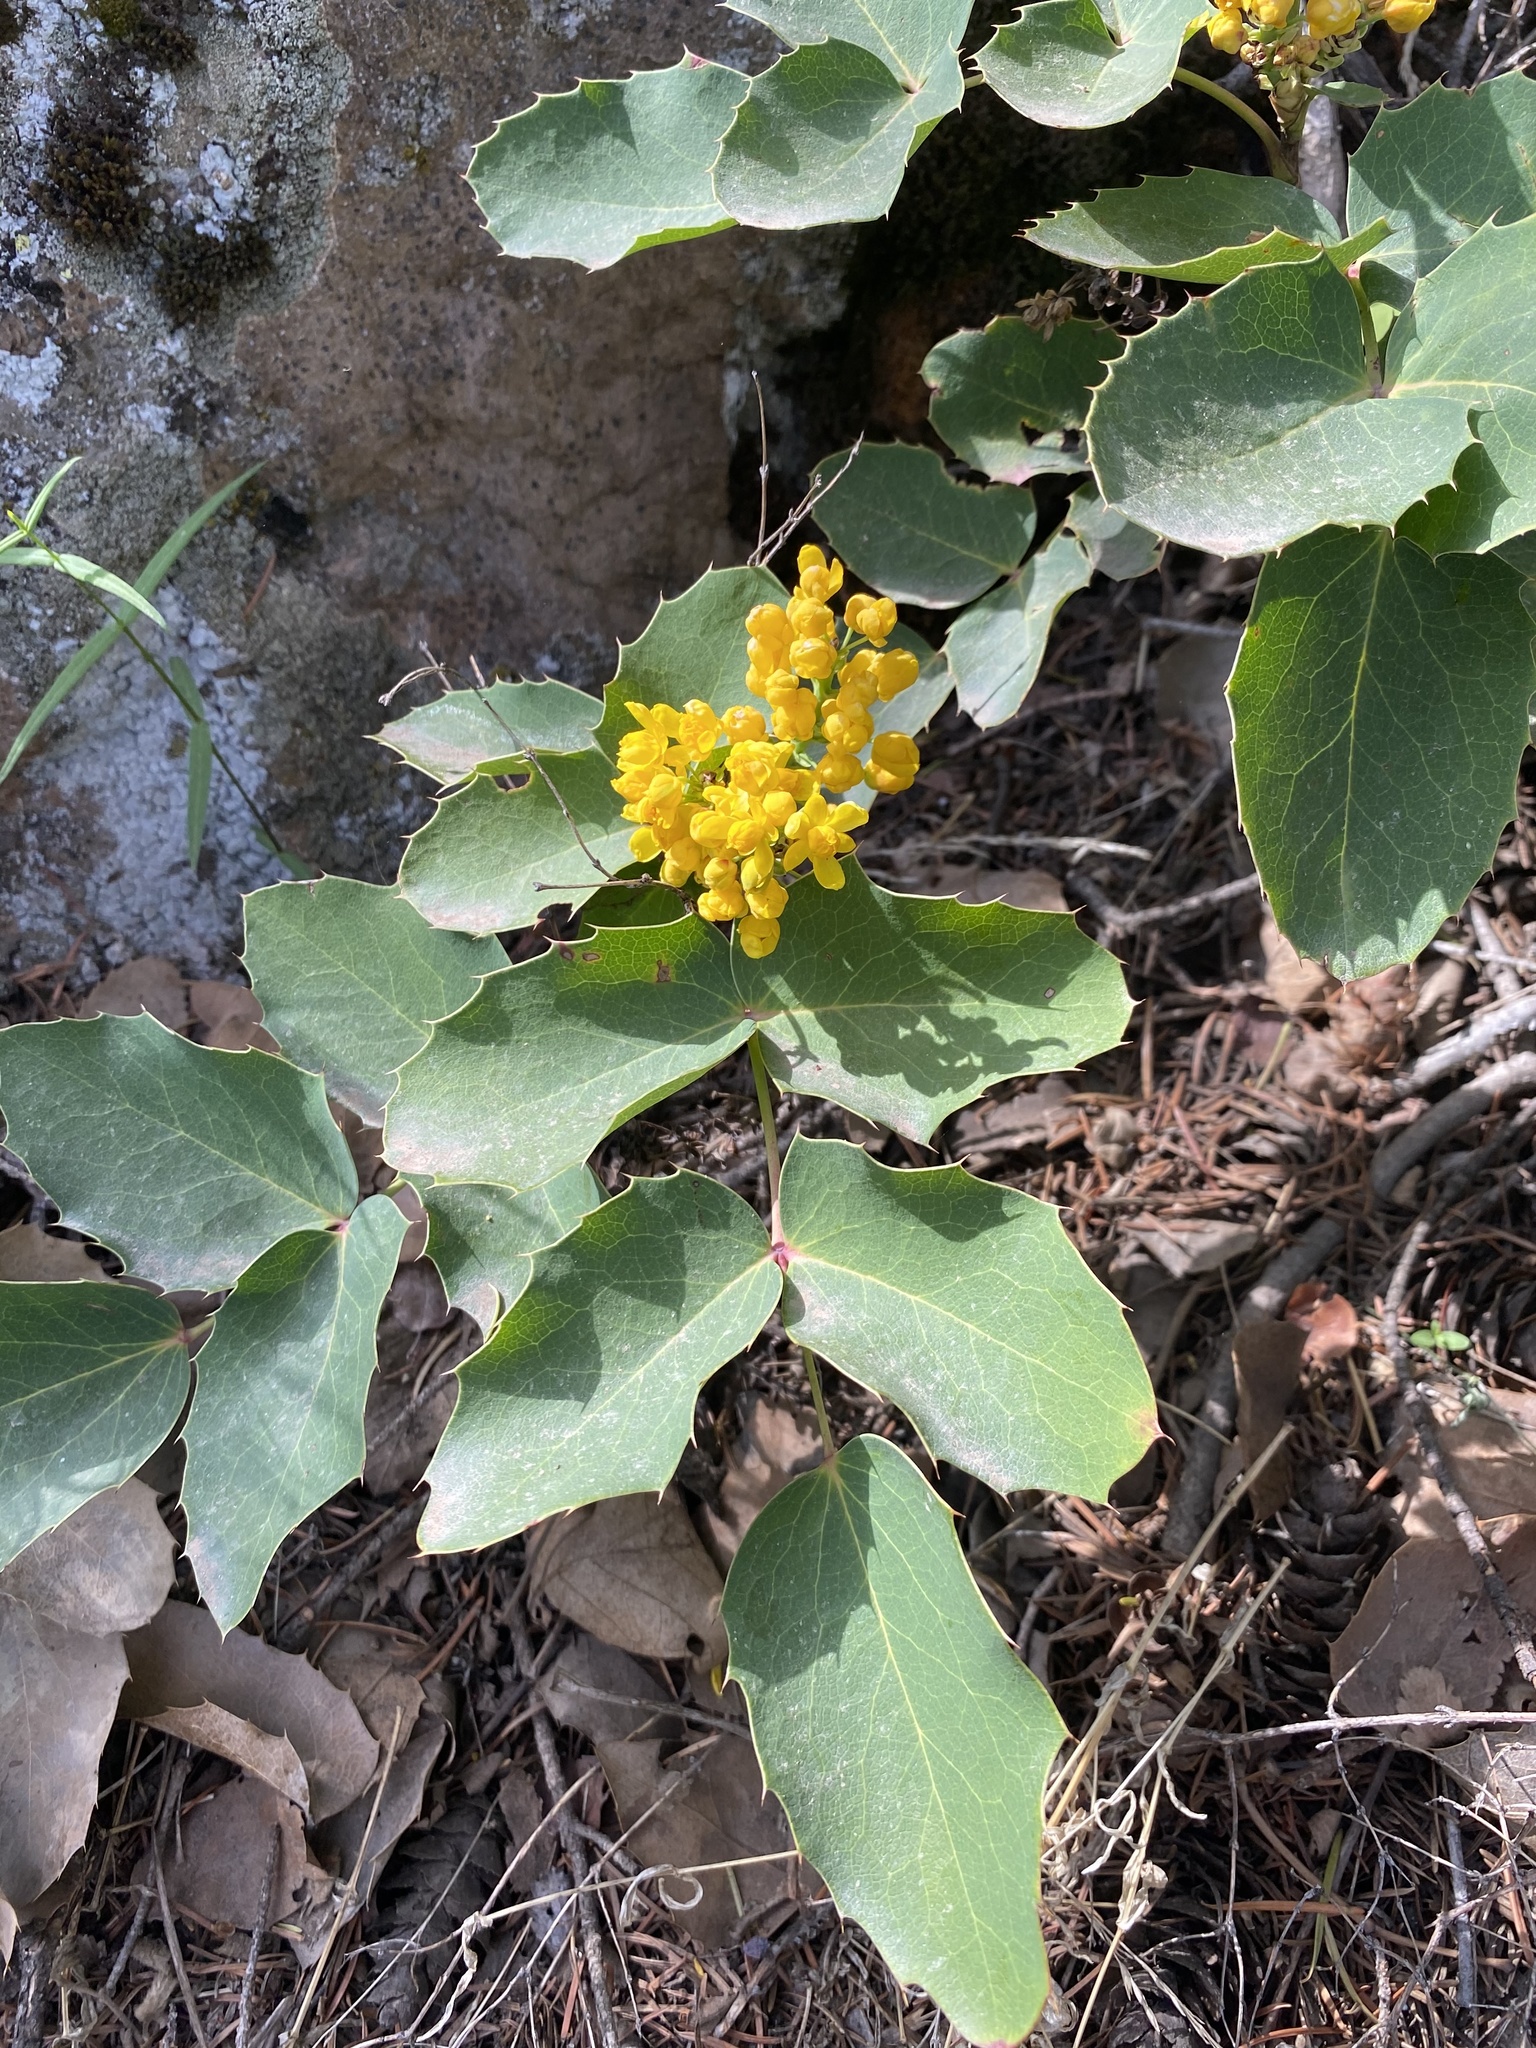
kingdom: Plantae
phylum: Tracheophyta
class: Magnoliopsida
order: Ranunculales
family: Berberidaceae
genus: Mahonia
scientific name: Mahonia repens
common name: Creeping oregon-grape
